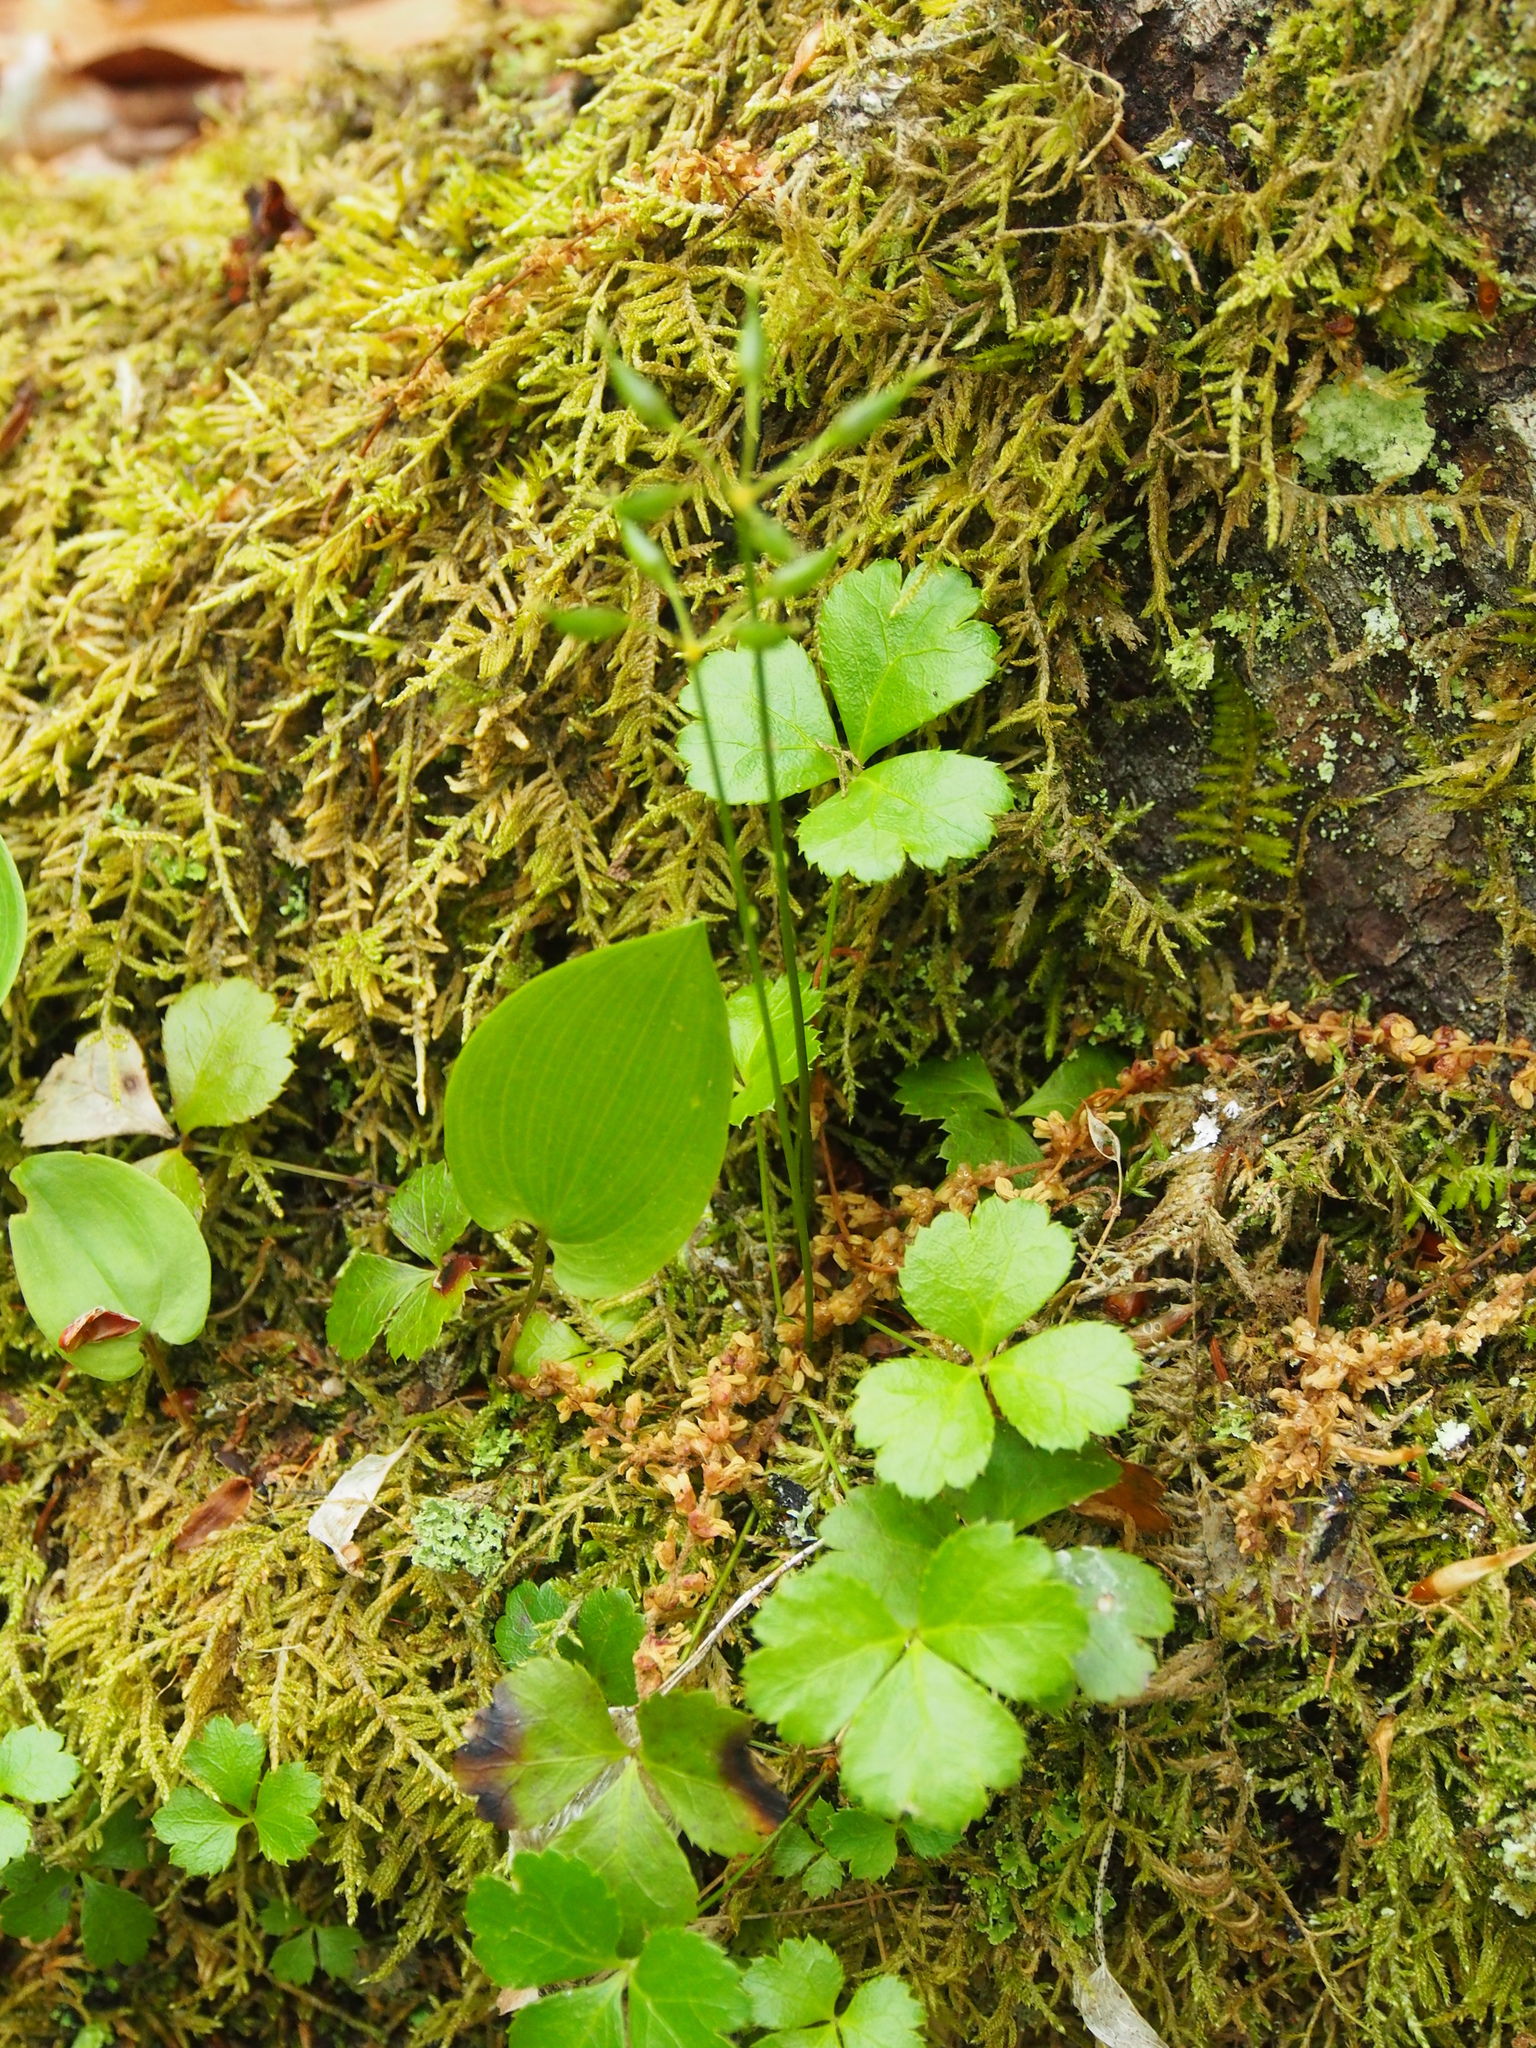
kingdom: Plantae
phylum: Tracheophyta
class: Magnoliopsida
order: Ranunculales
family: Ranunculaceae
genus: Coptis
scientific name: Coptis trifolia
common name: Canker-root
